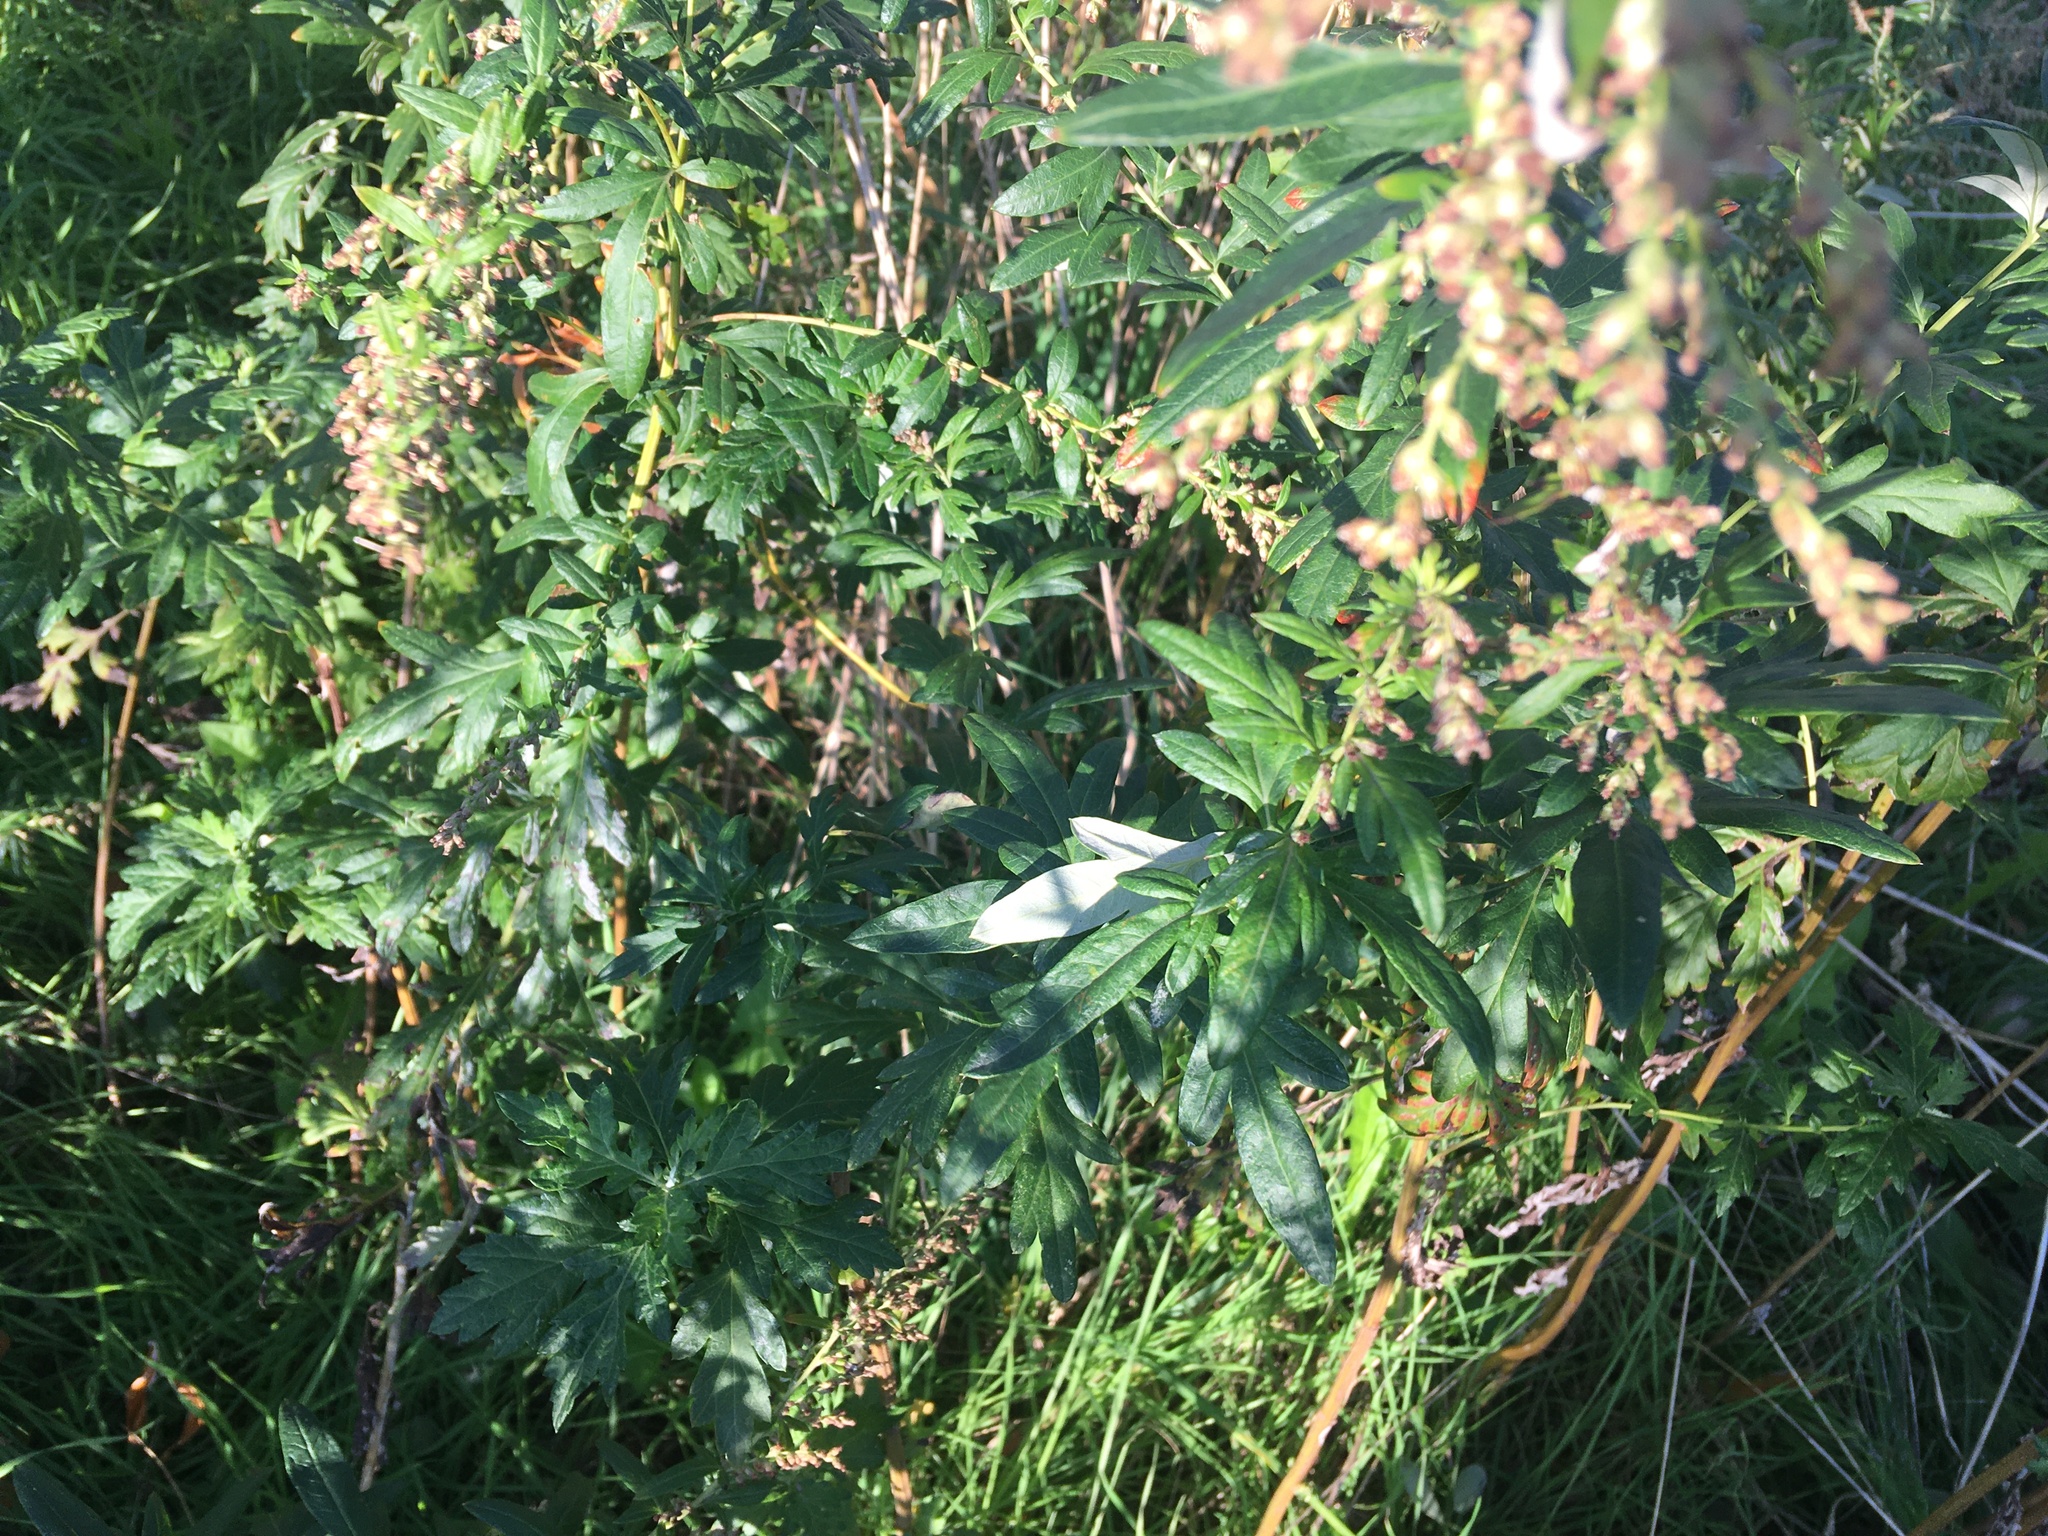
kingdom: Plantae
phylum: Tracheophyta
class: Magnoliopsida
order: Asterales
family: Asteraceae
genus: Artemisia
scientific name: Artemisia vulgaris
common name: Mugwort
